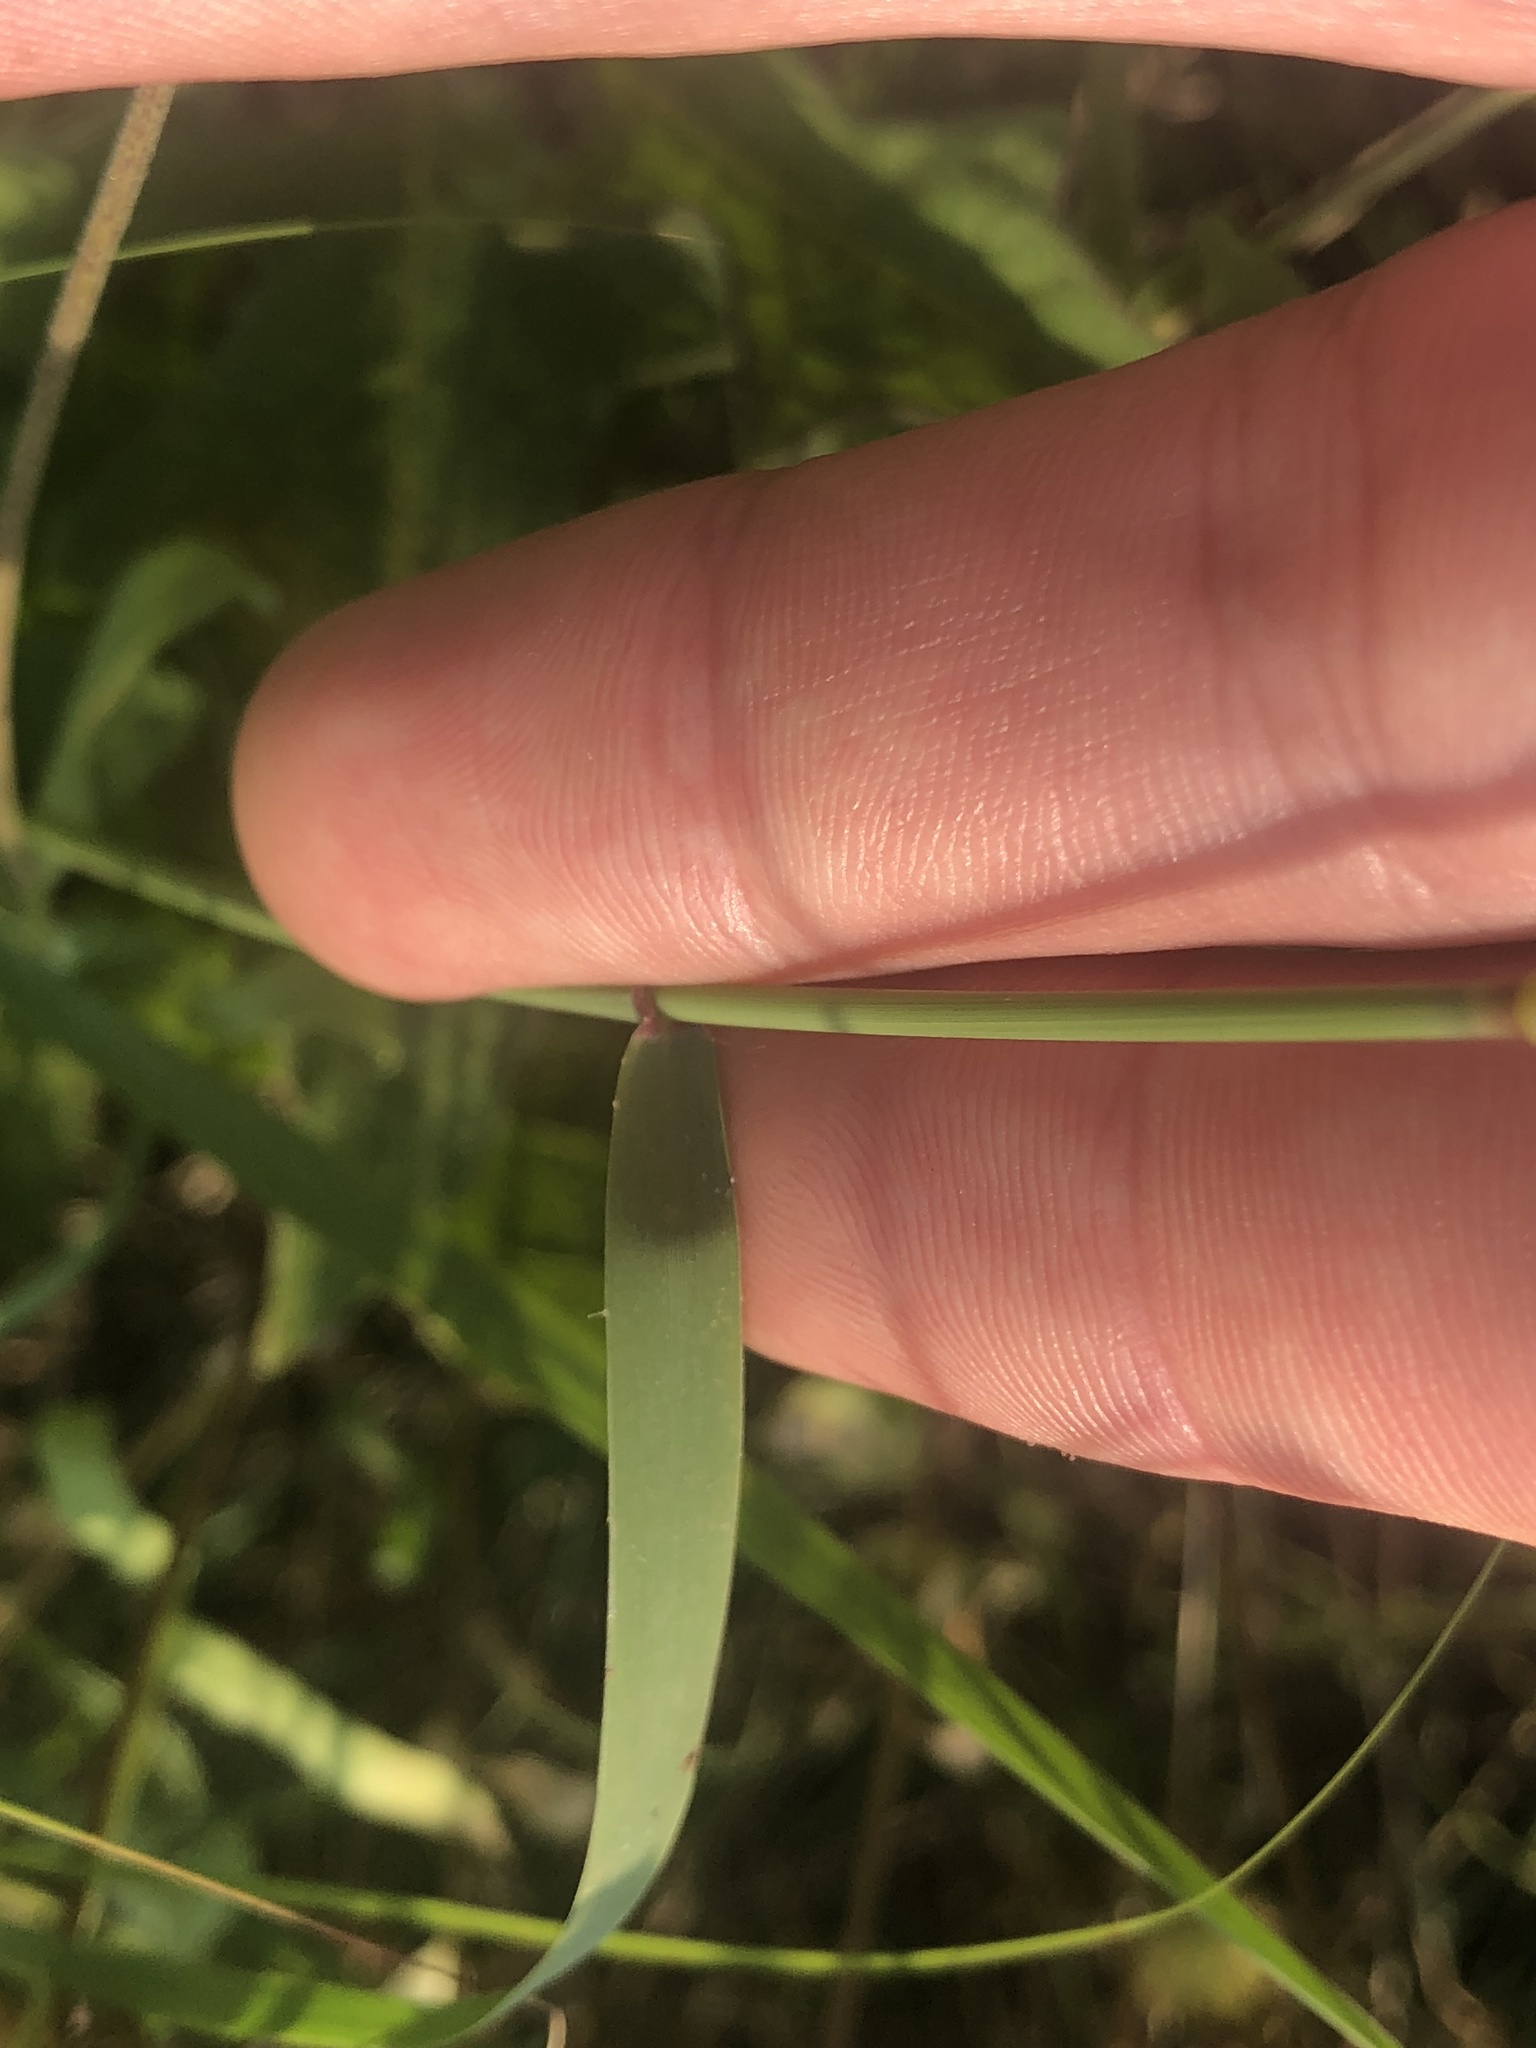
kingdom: Plantae
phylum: Tracheophyta
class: Liliopsida
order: Poales
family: Poaceae
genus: Bouteloua
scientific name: Bouteloua curtipendula
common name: Side-oats grama
